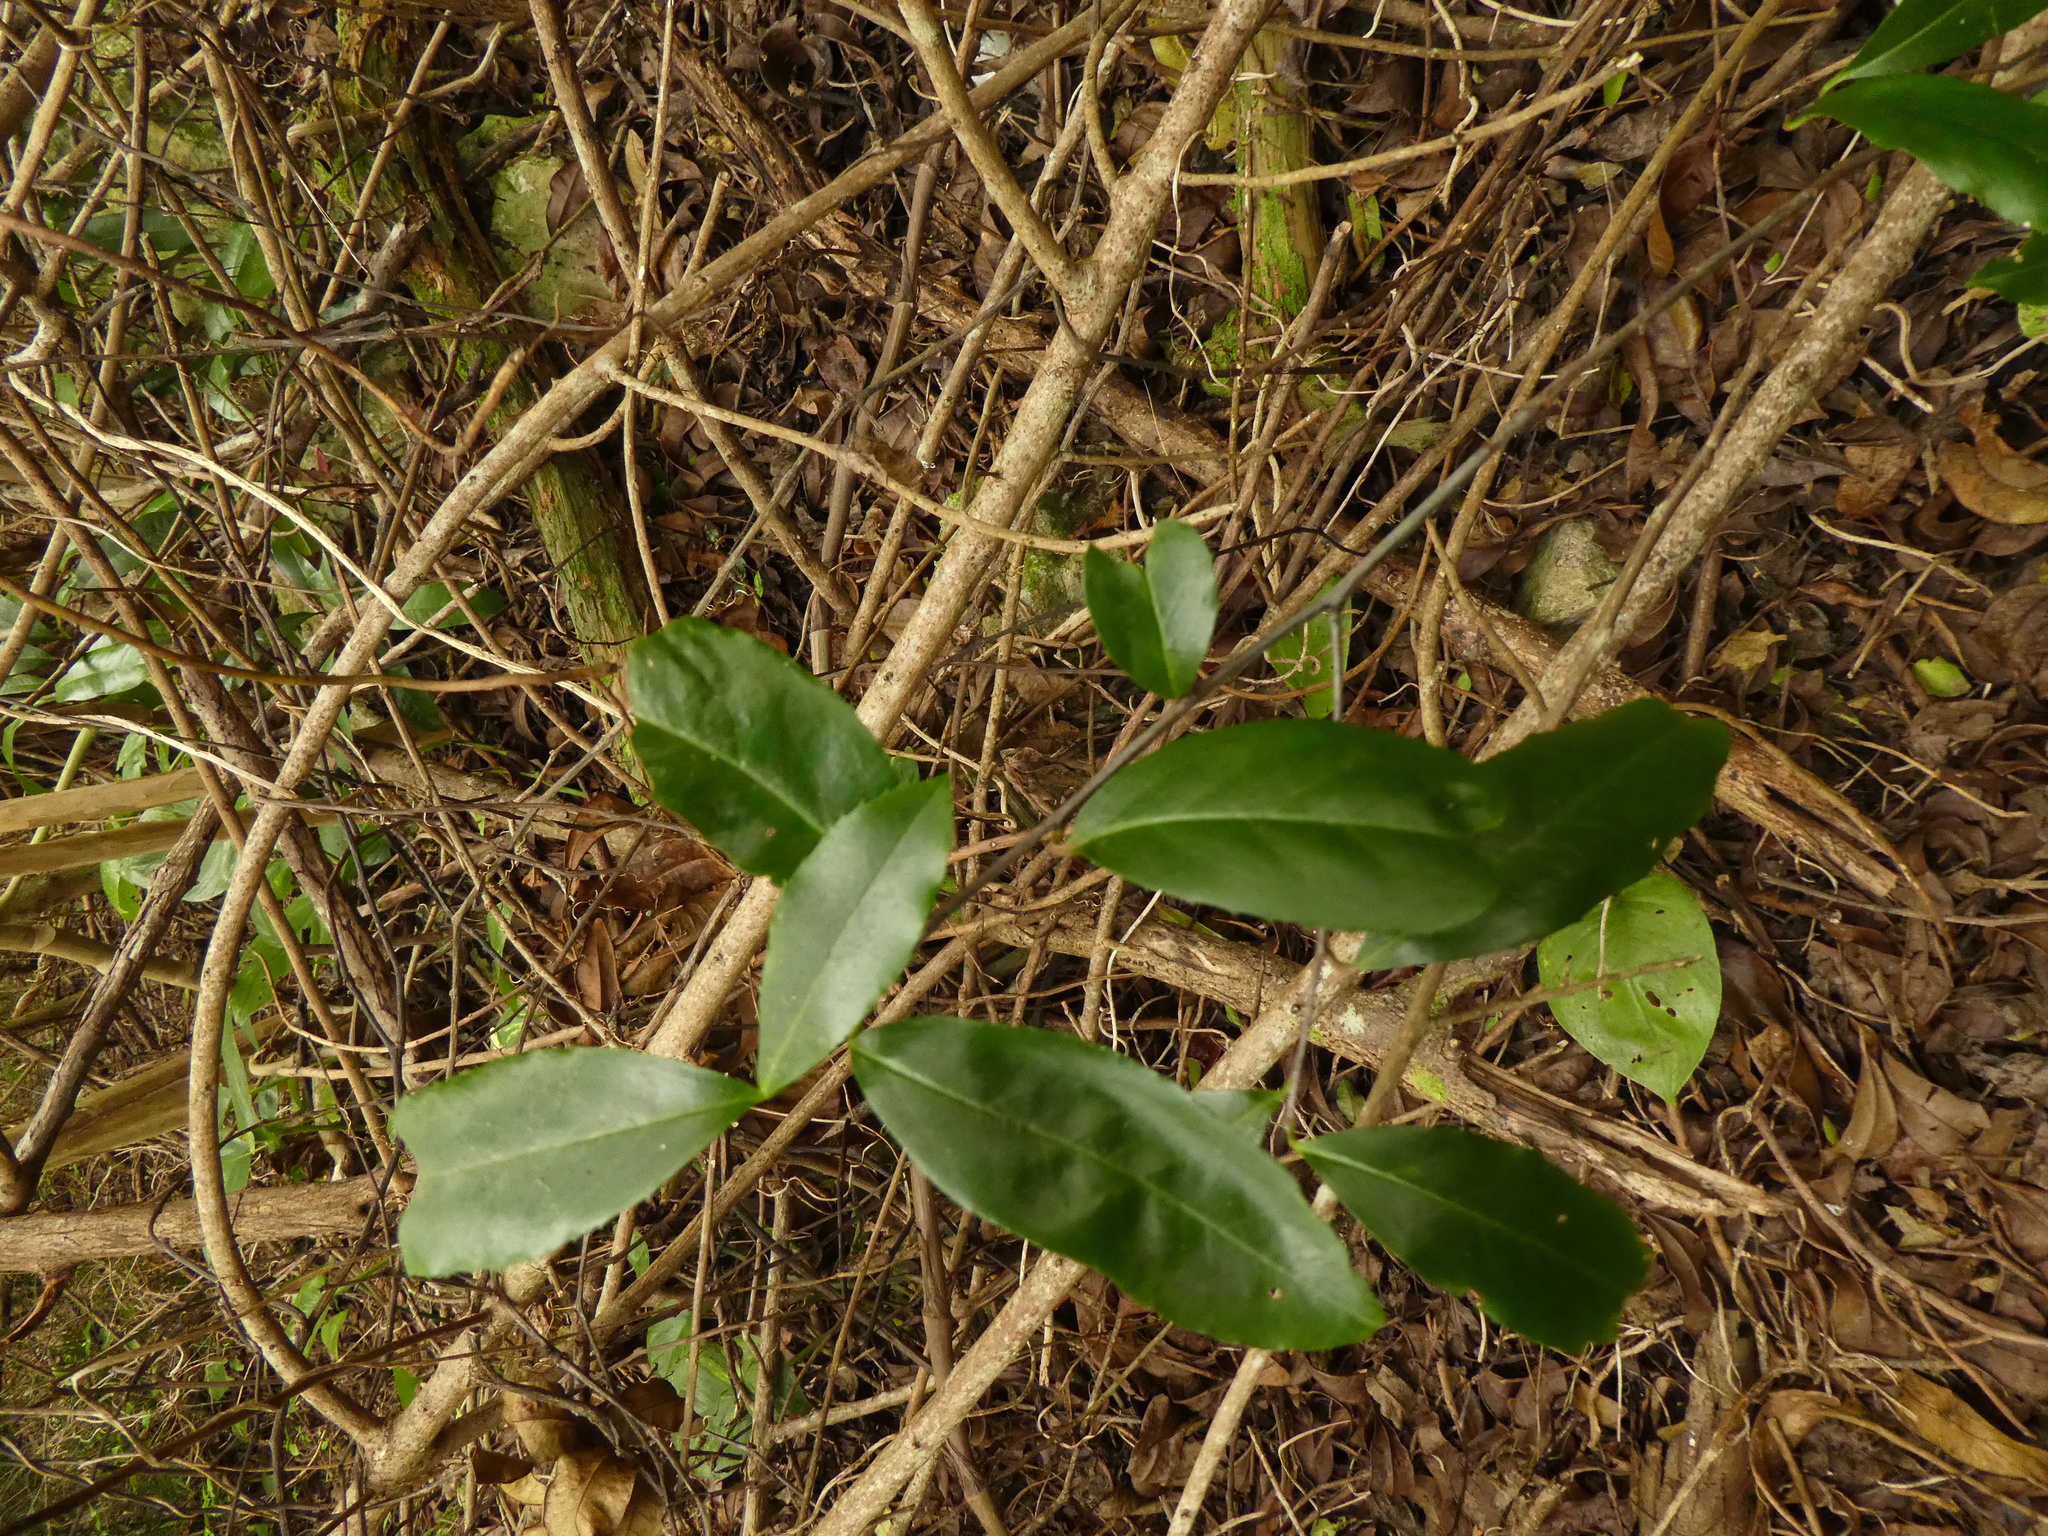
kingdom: Plantae
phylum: Tracheophyta
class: Magnoliopsida
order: Rosales
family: Rosaceae
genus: Prunus
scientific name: Prunus caroliniana
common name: Carolina laurel cherry
